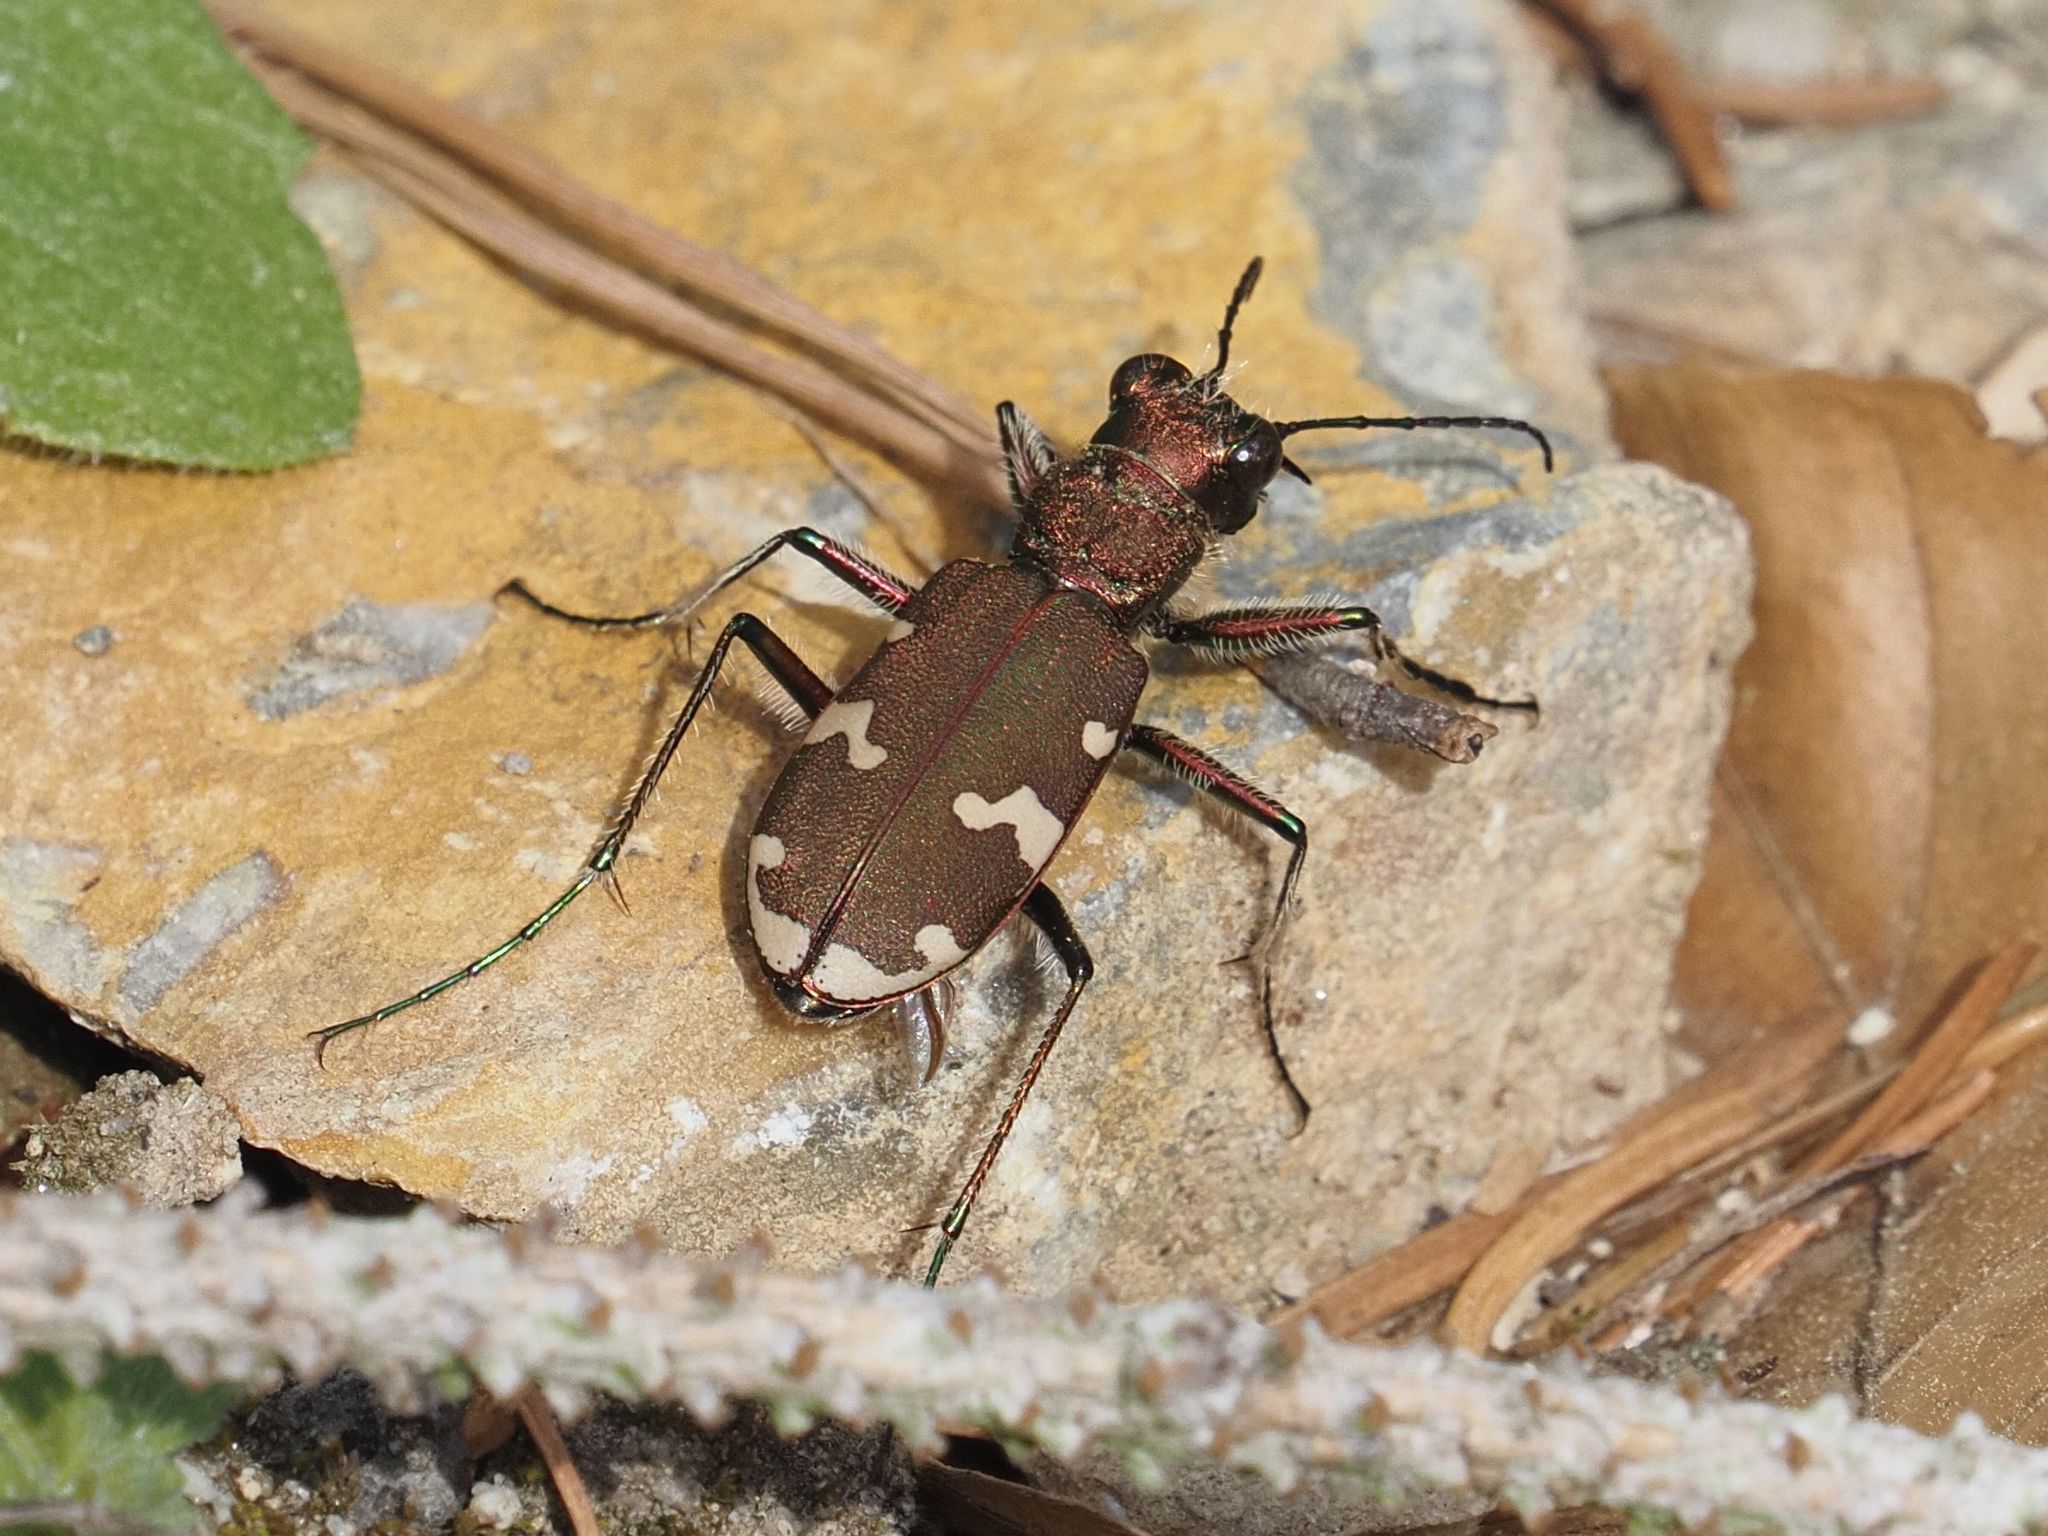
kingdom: Animalia
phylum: Arthropoda
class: Insecta
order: Coleoptera
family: Carabidae
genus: Cicindela
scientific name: Cicindela sylvicola
